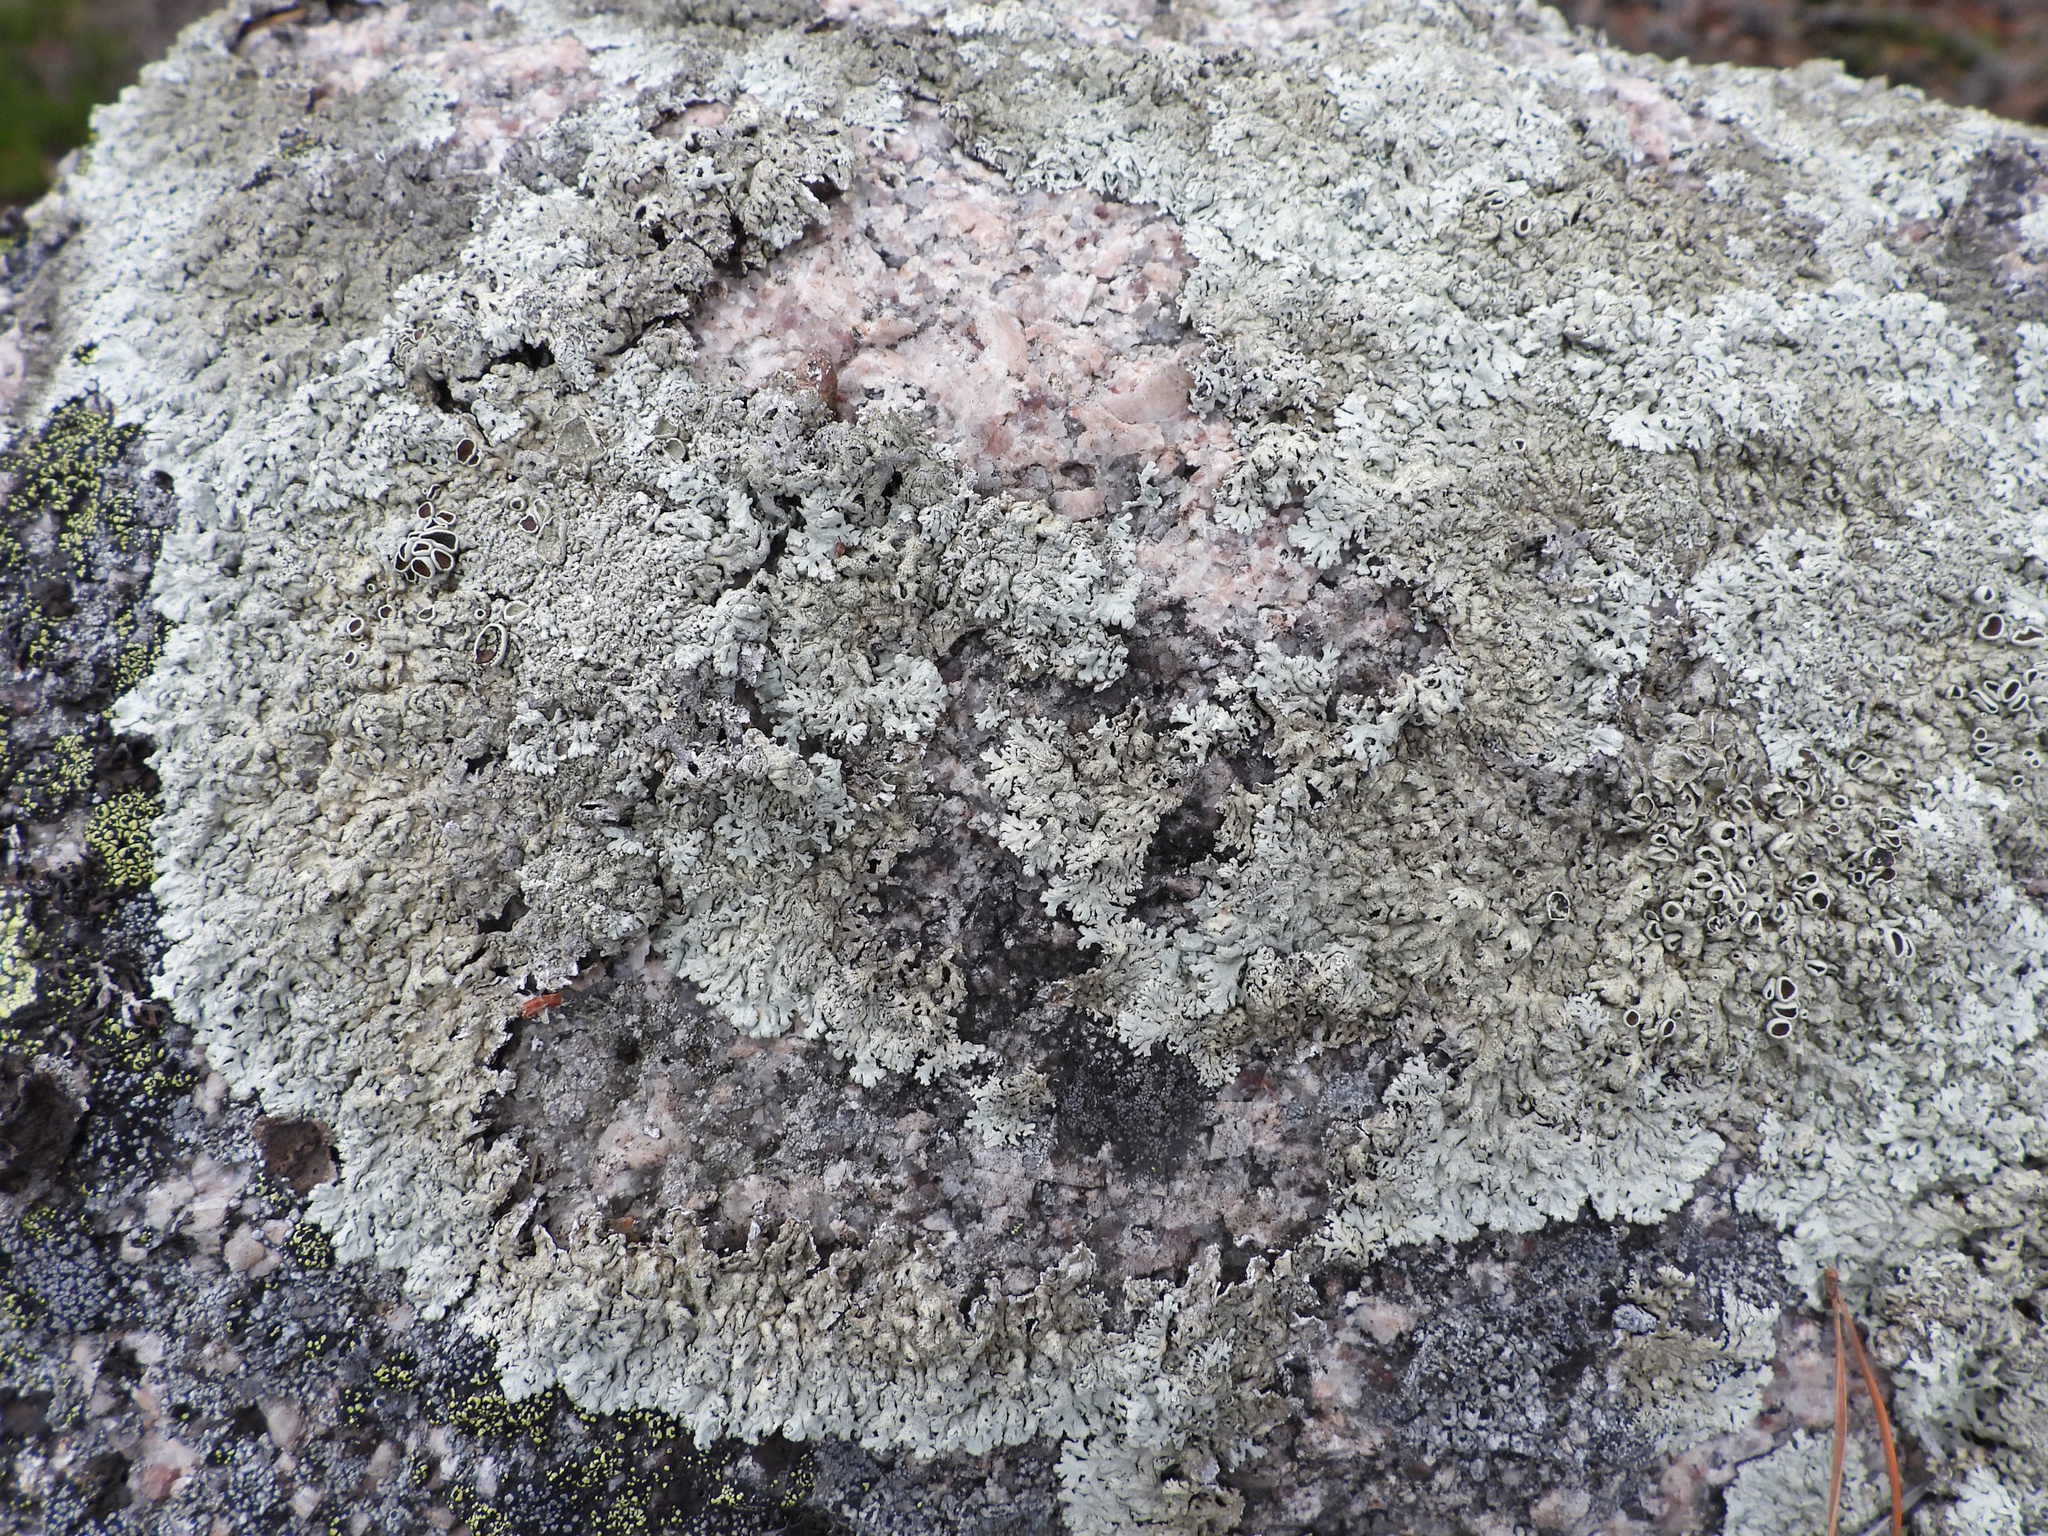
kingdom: Fungi
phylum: Ascomycota
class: Lecanoromycetes
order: Lecanorales
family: Parmeliaceae
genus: Arctoparmelia
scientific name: Arctoparmelia centrifuga
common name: Concentric ring lichen
